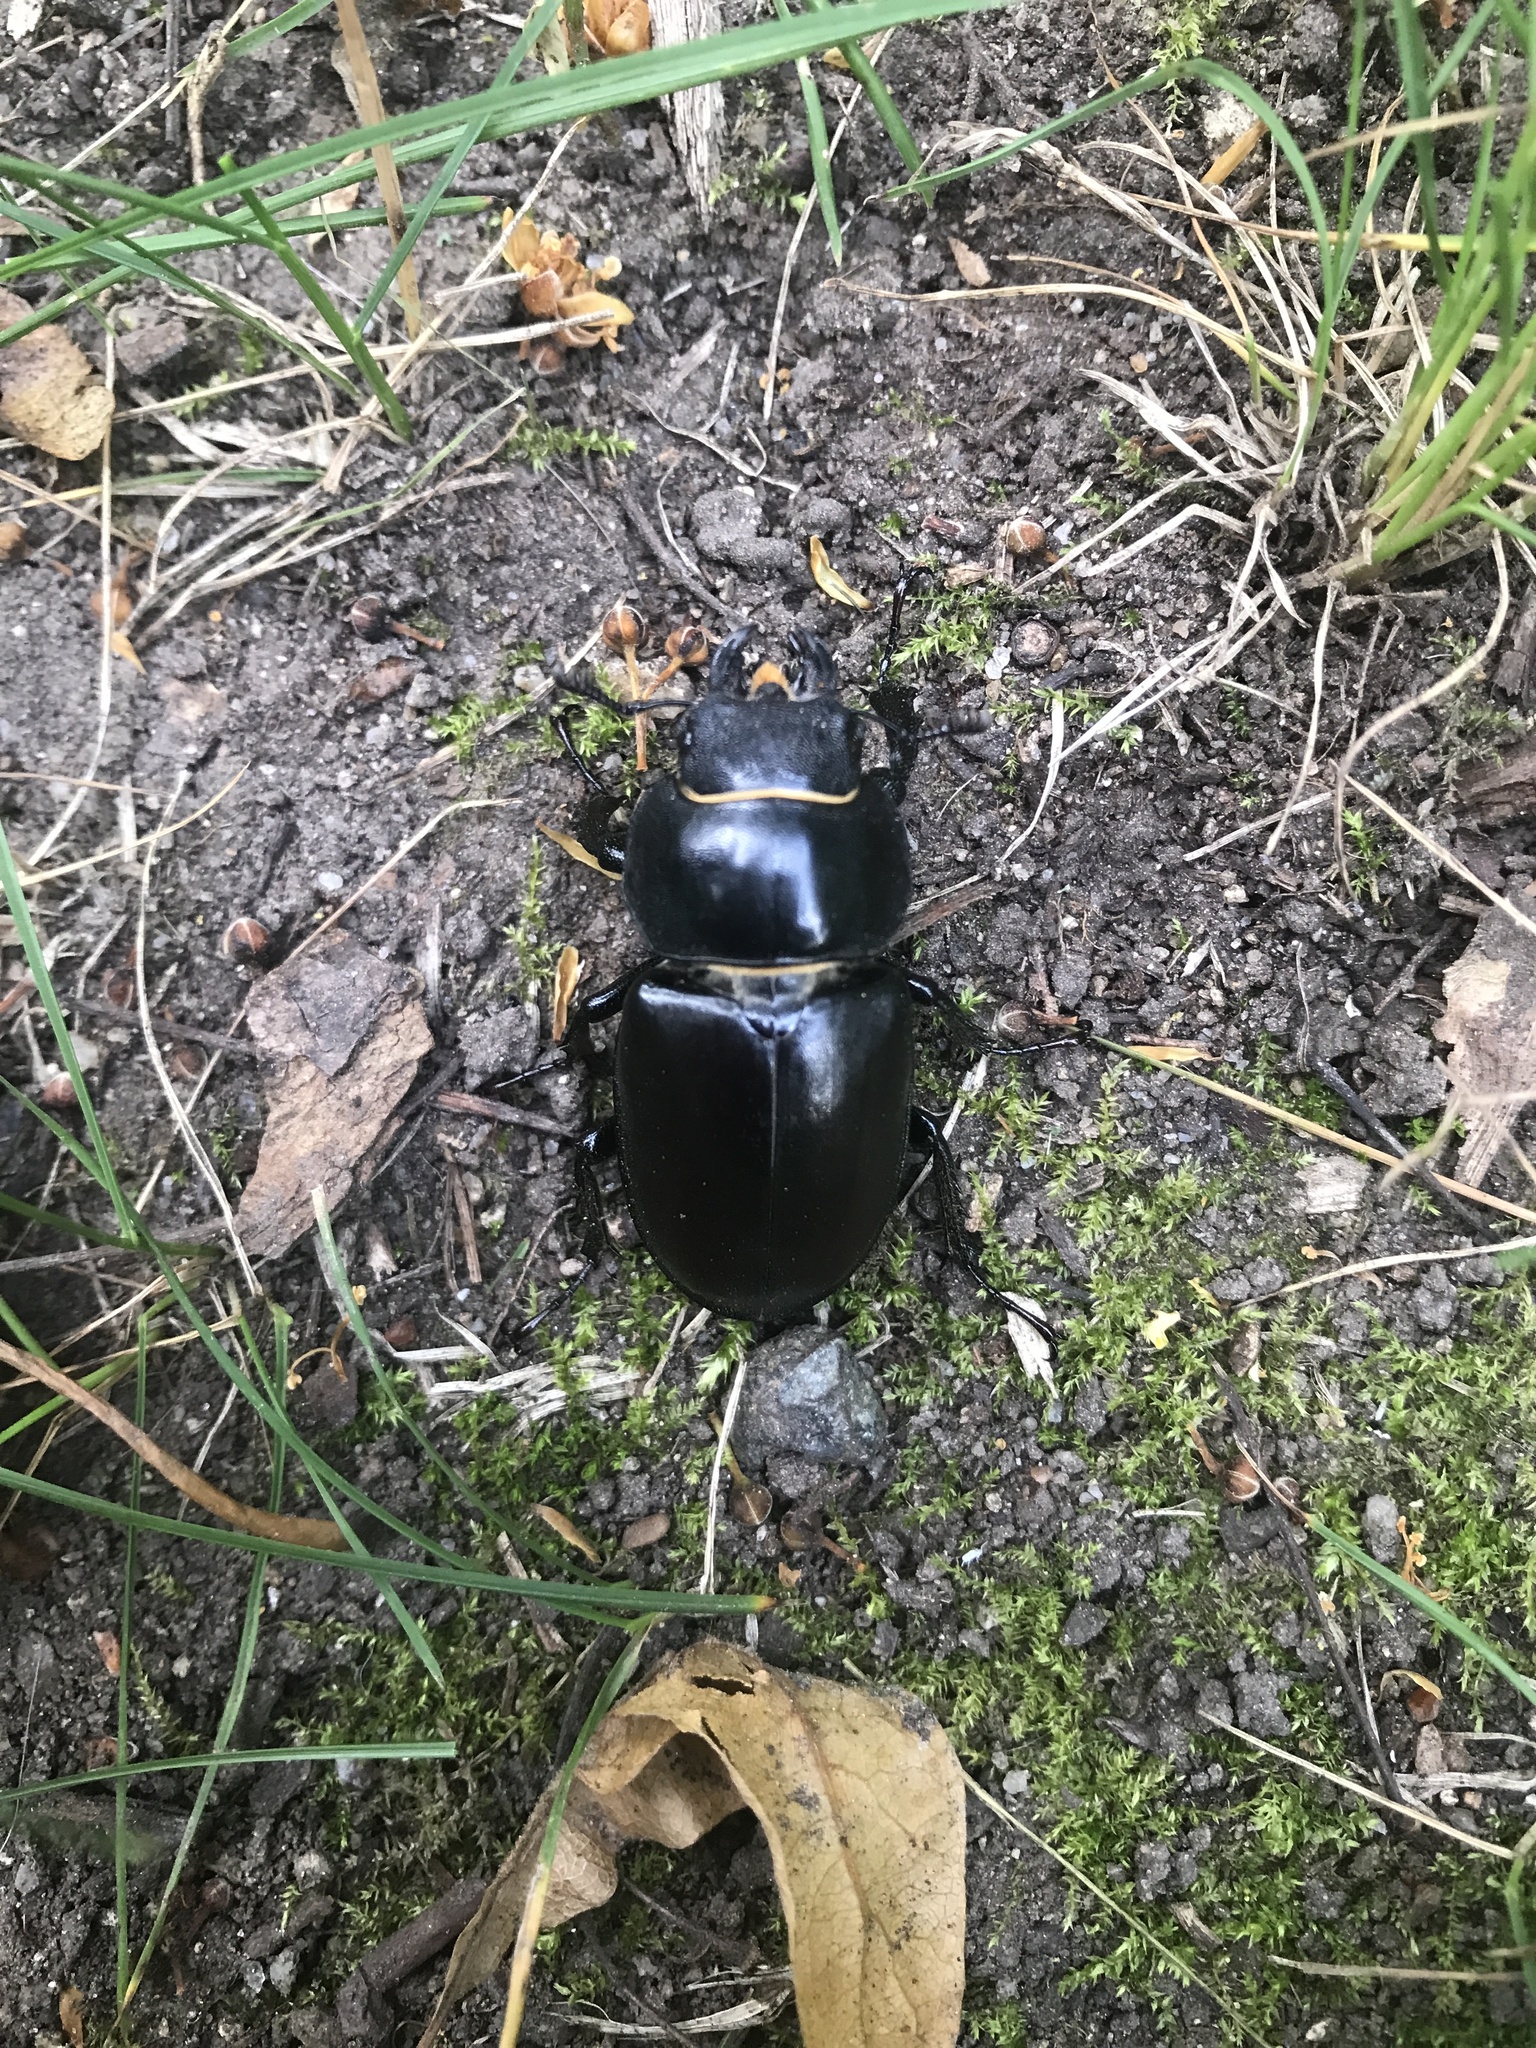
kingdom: Animalia
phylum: Arthropoda
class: Insecta
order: Coleoptera
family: Lucanidae
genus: Lucanus
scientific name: Lucanus cervus
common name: Stag beetle
